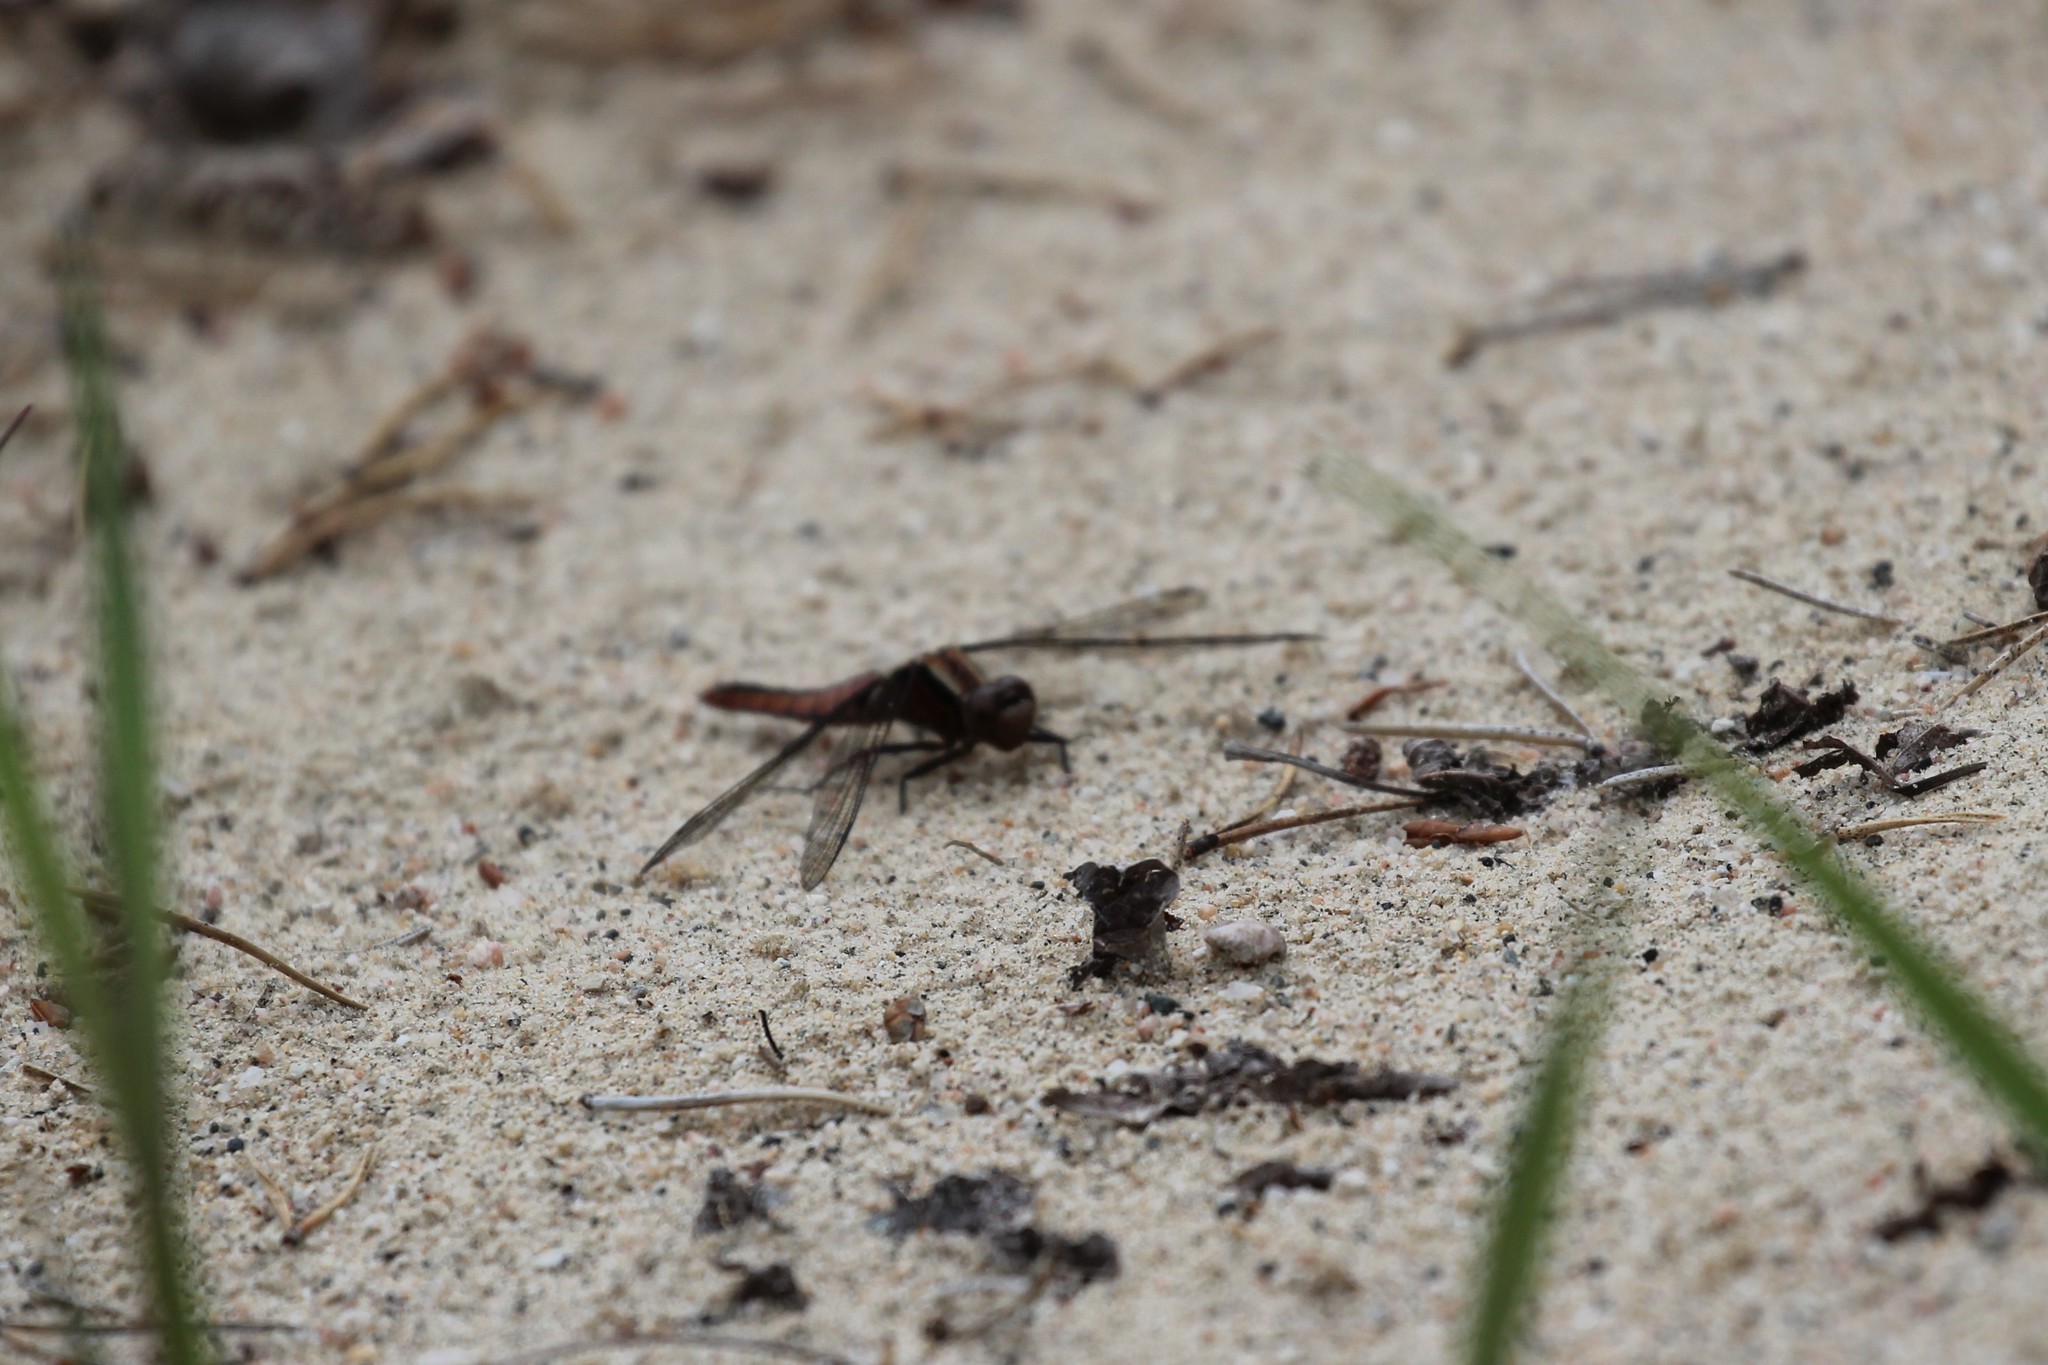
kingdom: Animalia
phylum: Arthropoda
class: Insecta
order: Odonata
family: Libellulidae
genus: Ladona
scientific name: Ladona julia
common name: Chalk-fronted corporal
